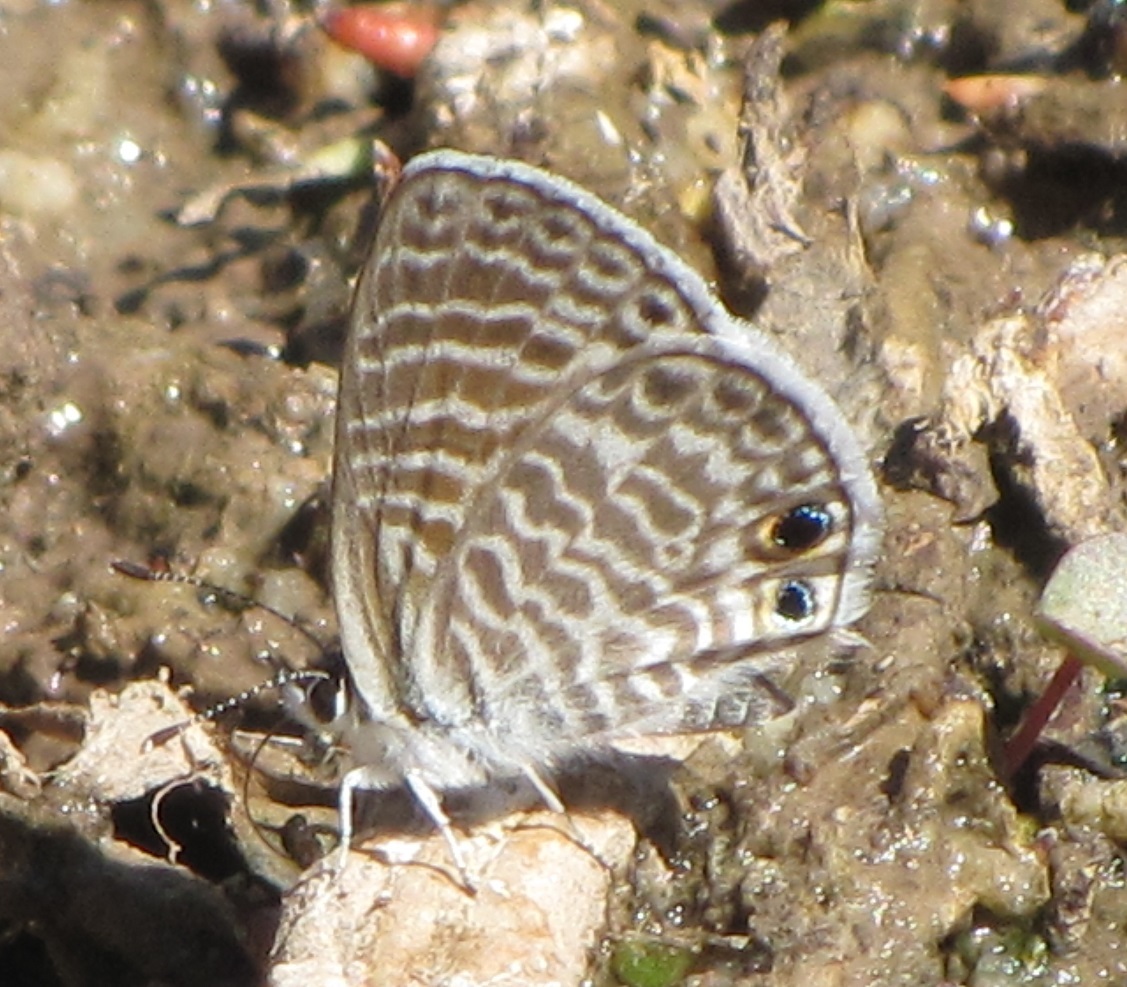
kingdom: Animalia
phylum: Arthropoda
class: Insecta
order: Lepidoptera
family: Lycaenidae
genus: Leptotes
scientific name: Leptotes marina
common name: Marine blue
